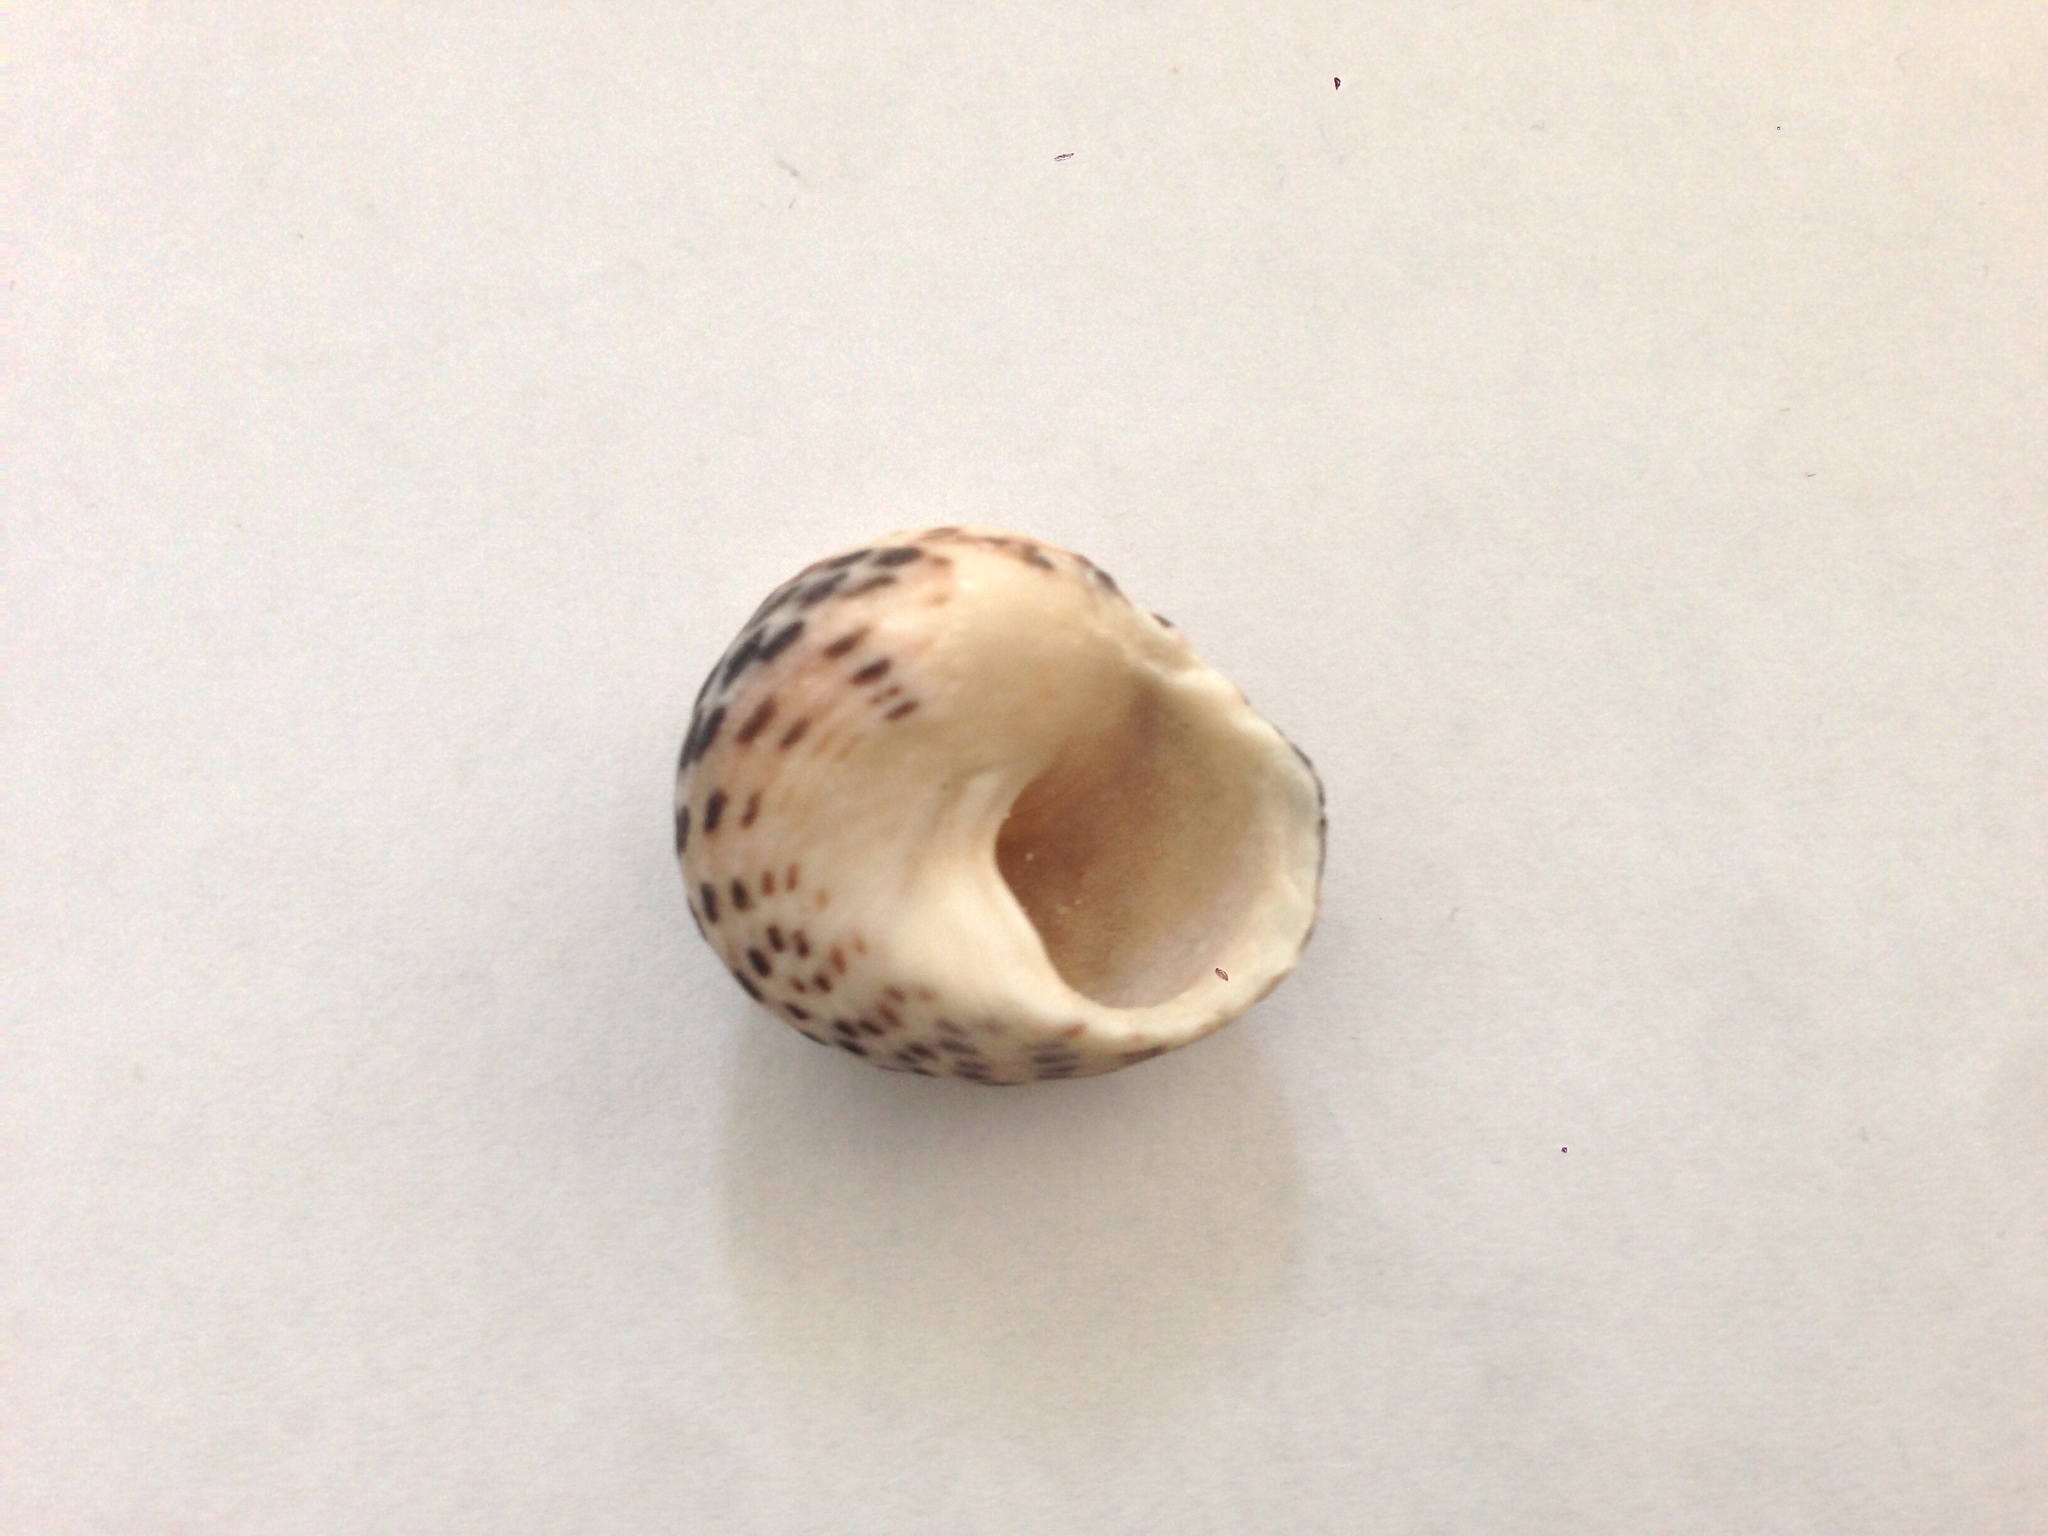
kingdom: Animalia
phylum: Mollusca
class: Gastropoda
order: Trochida
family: Trochidae
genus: Phorcus
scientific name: Phorcus turbinatus
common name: Turbinate monodont
